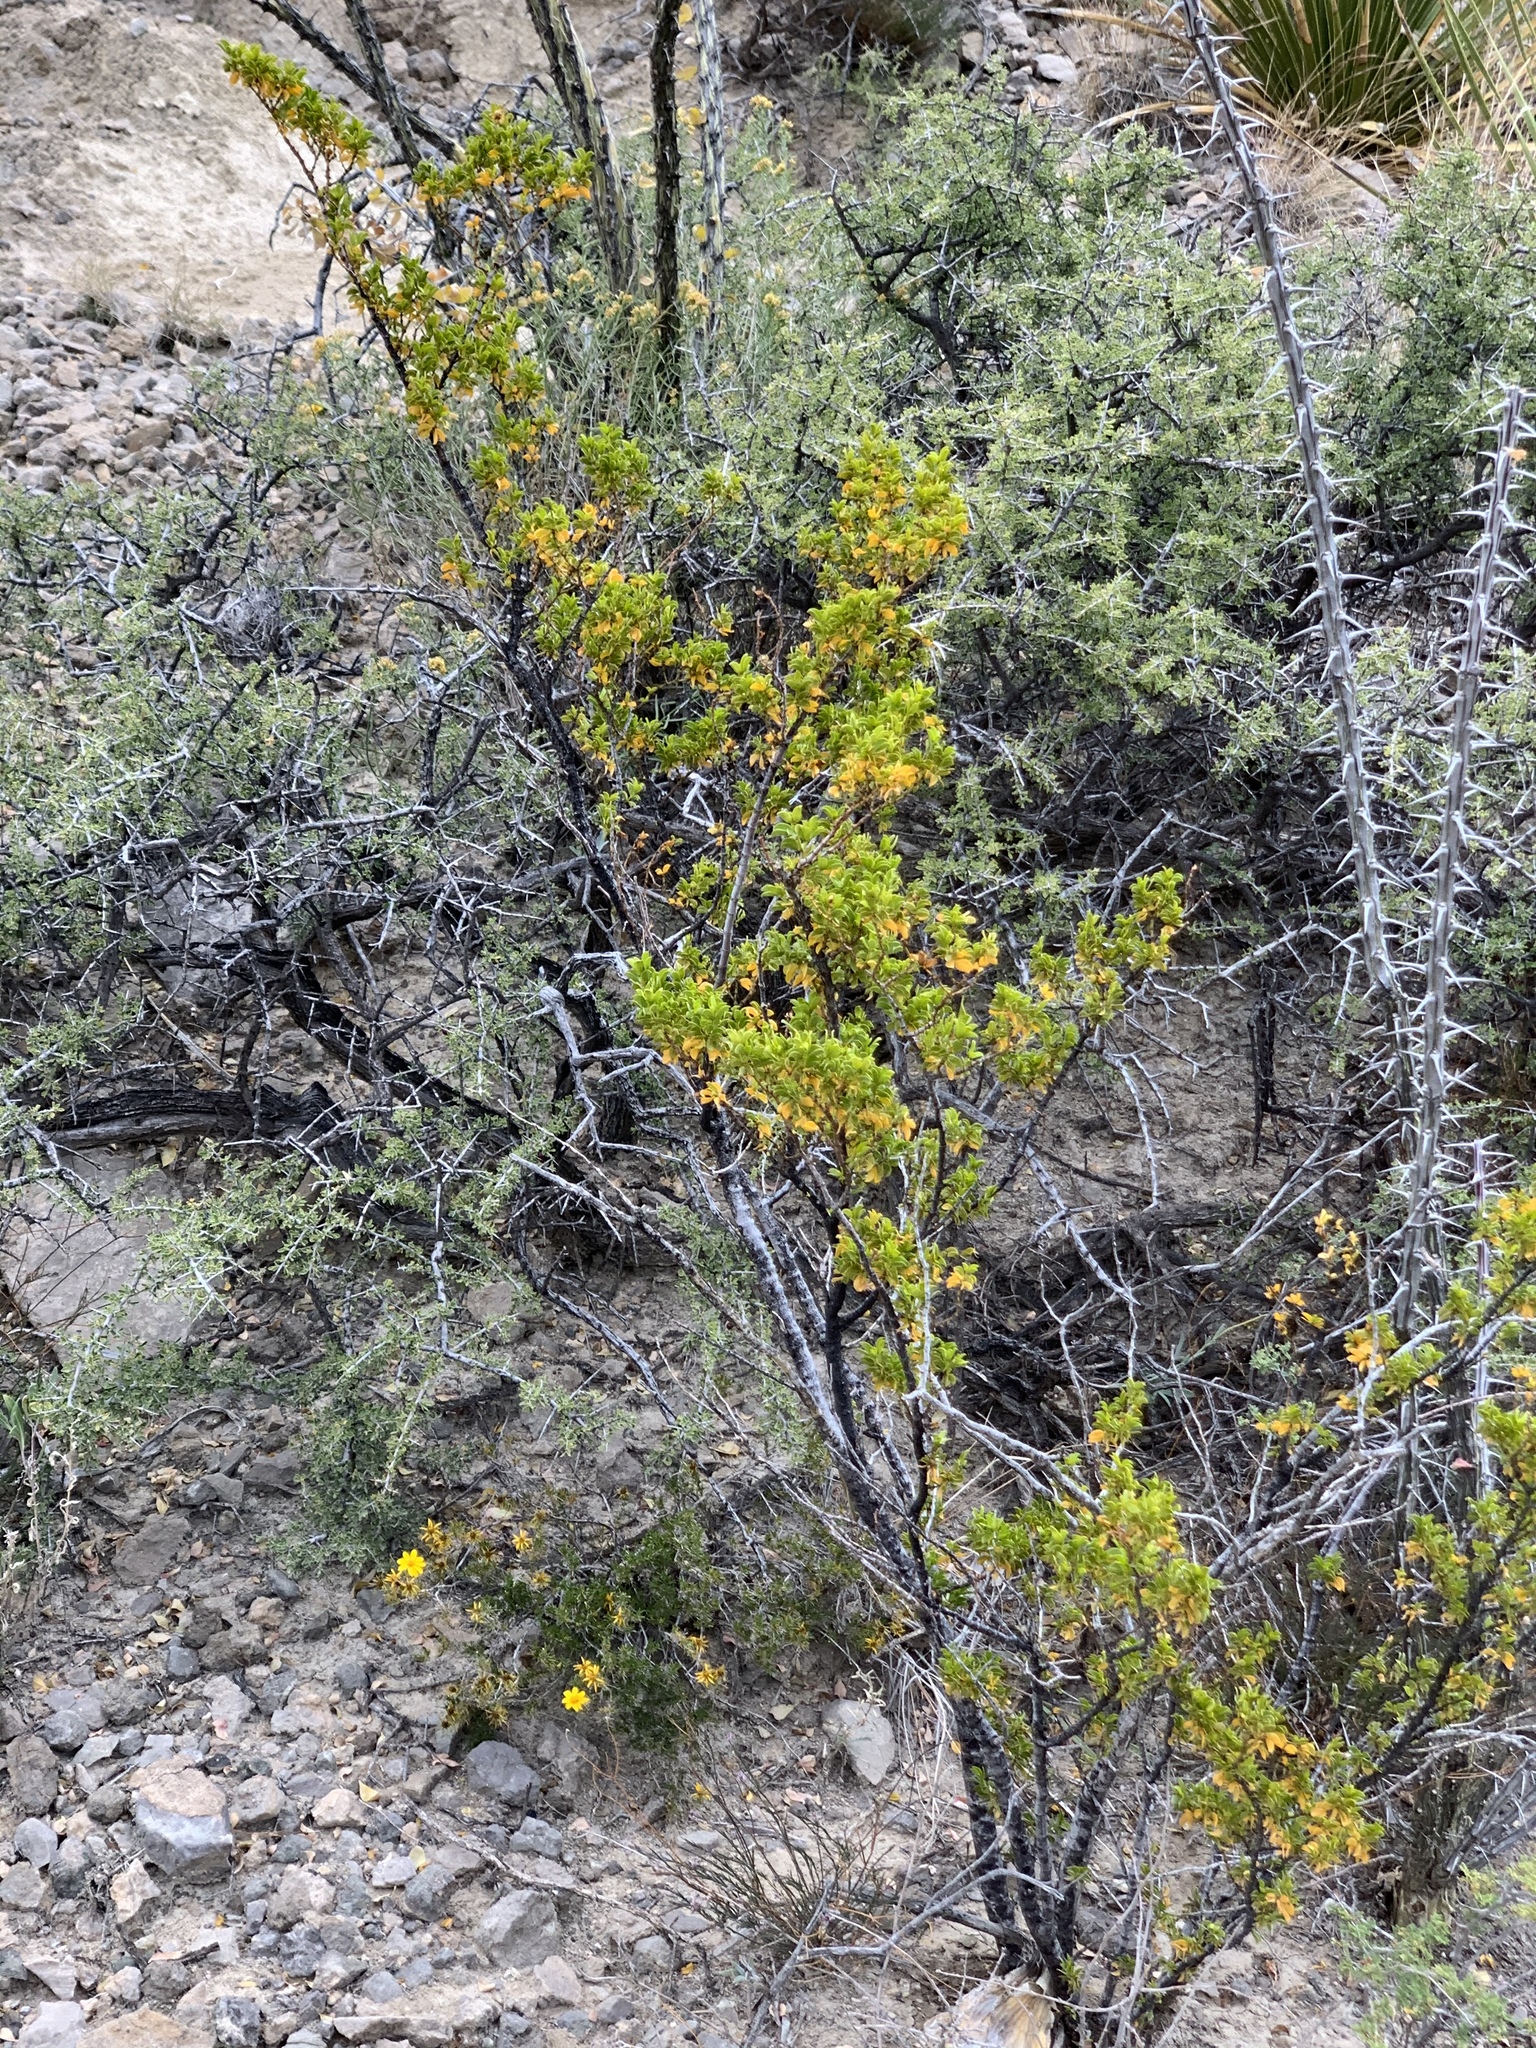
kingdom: Plantae
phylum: Tracheophyta
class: Magnoliopsida
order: Zygophyllales
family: Zygophyllaceae
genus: Larrea
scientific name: Larrea tridentata
